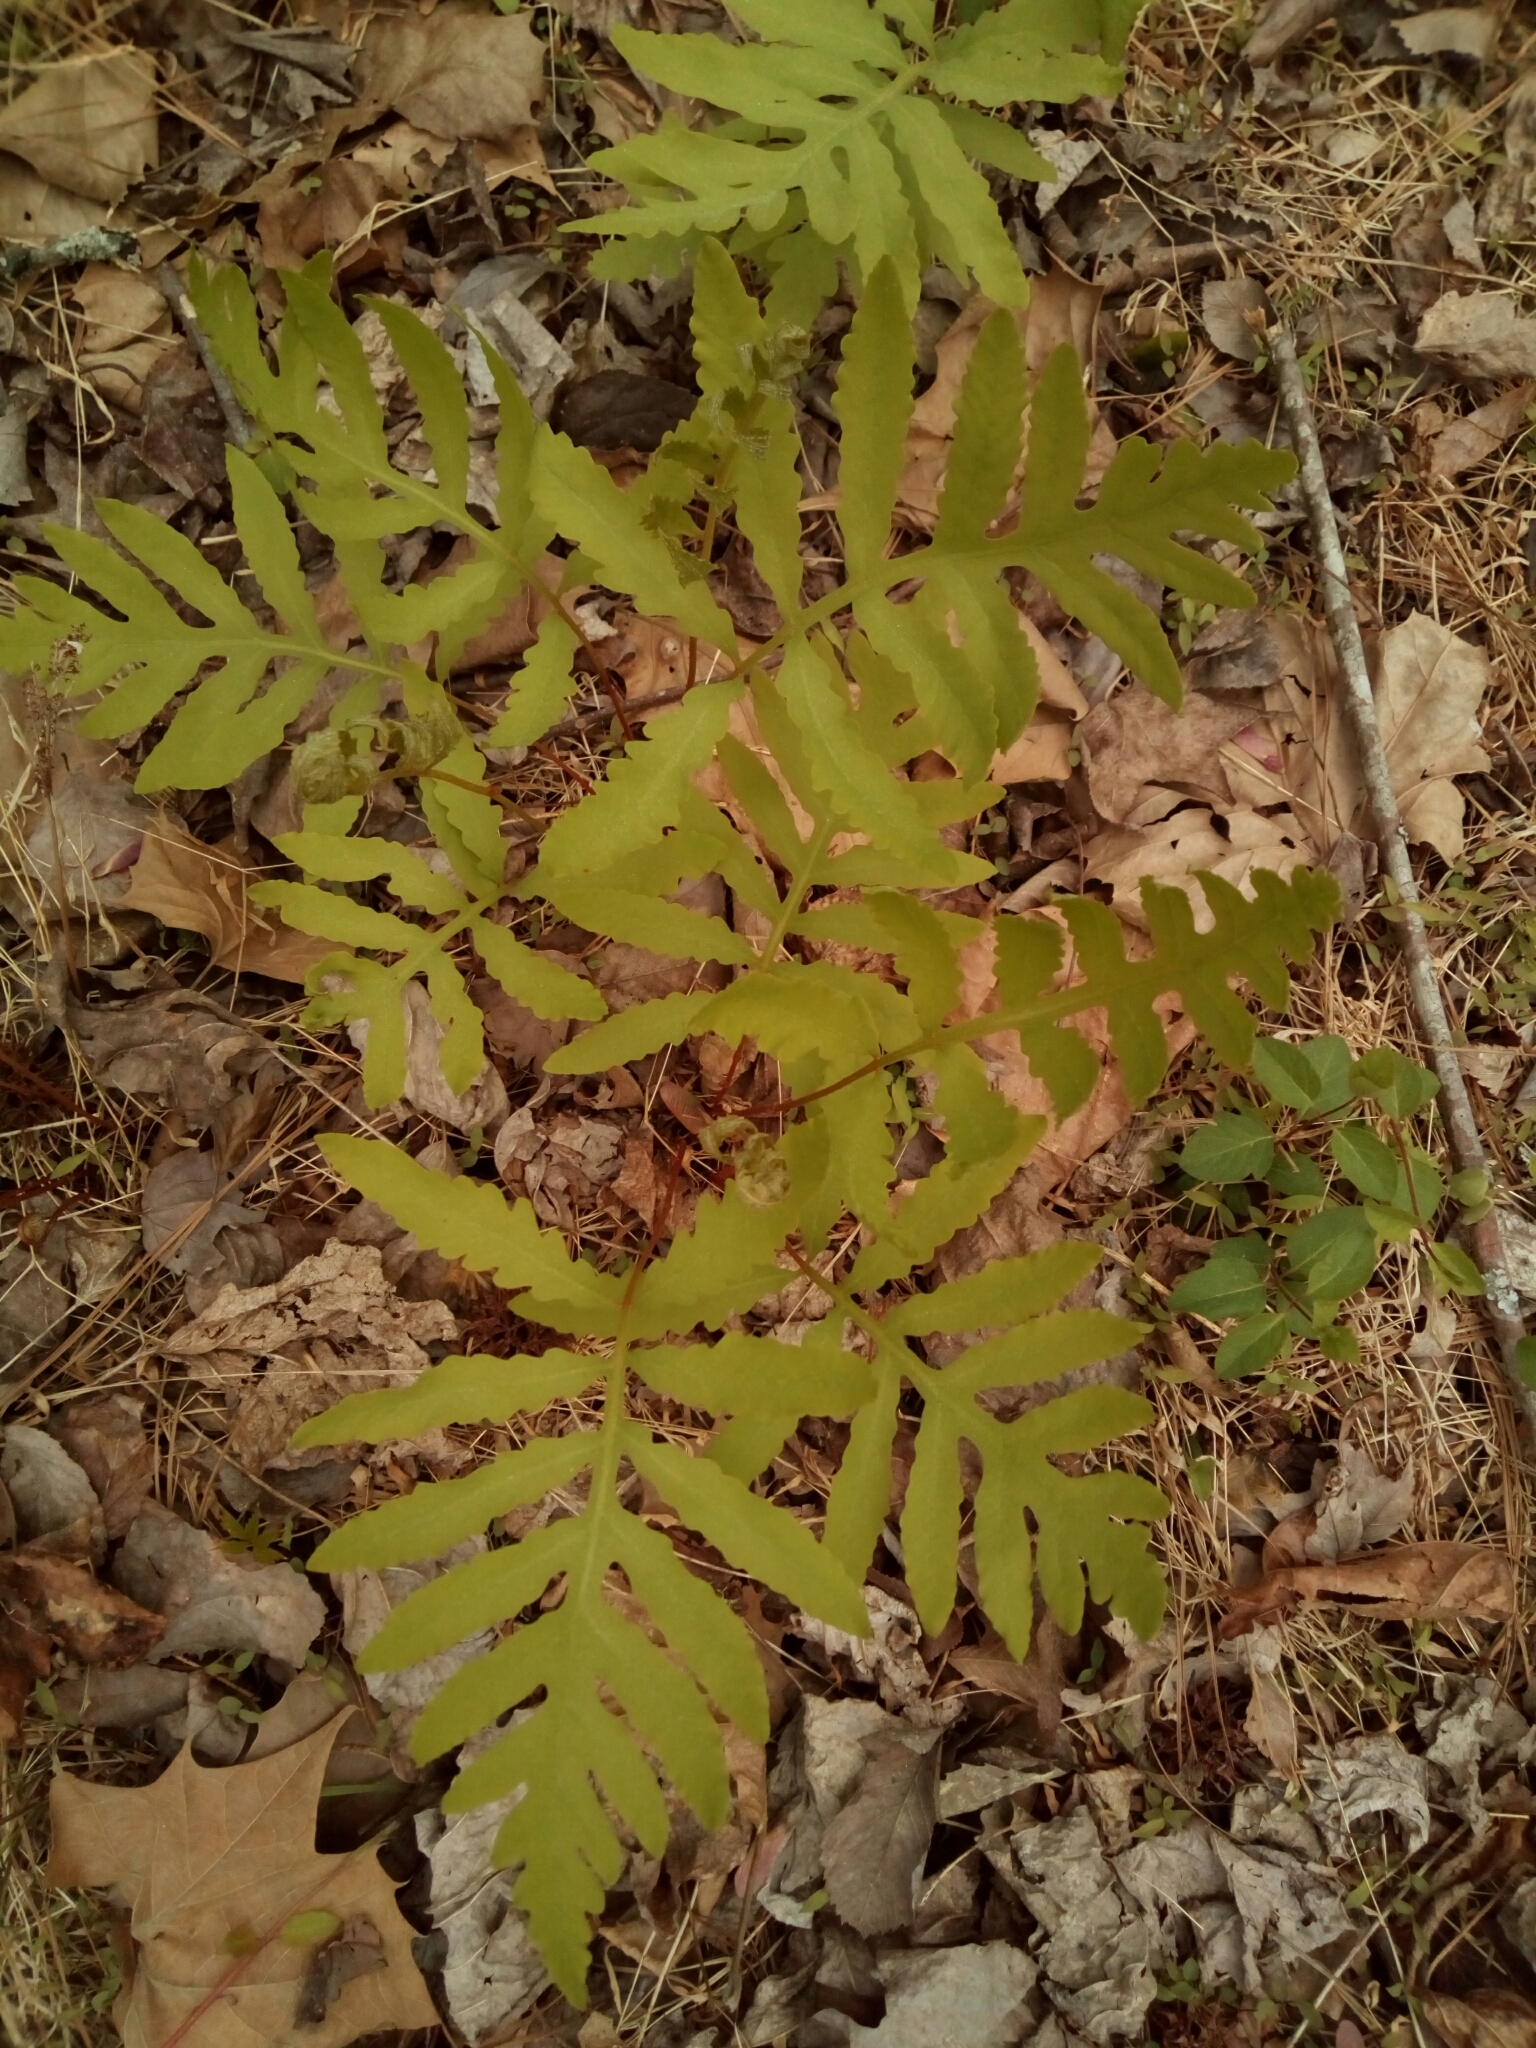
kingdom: Plantae
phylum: Tracheophyta
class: Polypodiopsida
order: Polypodiales
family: Onocleaceae
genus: Onoclea
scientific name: Onoclea sensibilis
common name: Sensitive fern
